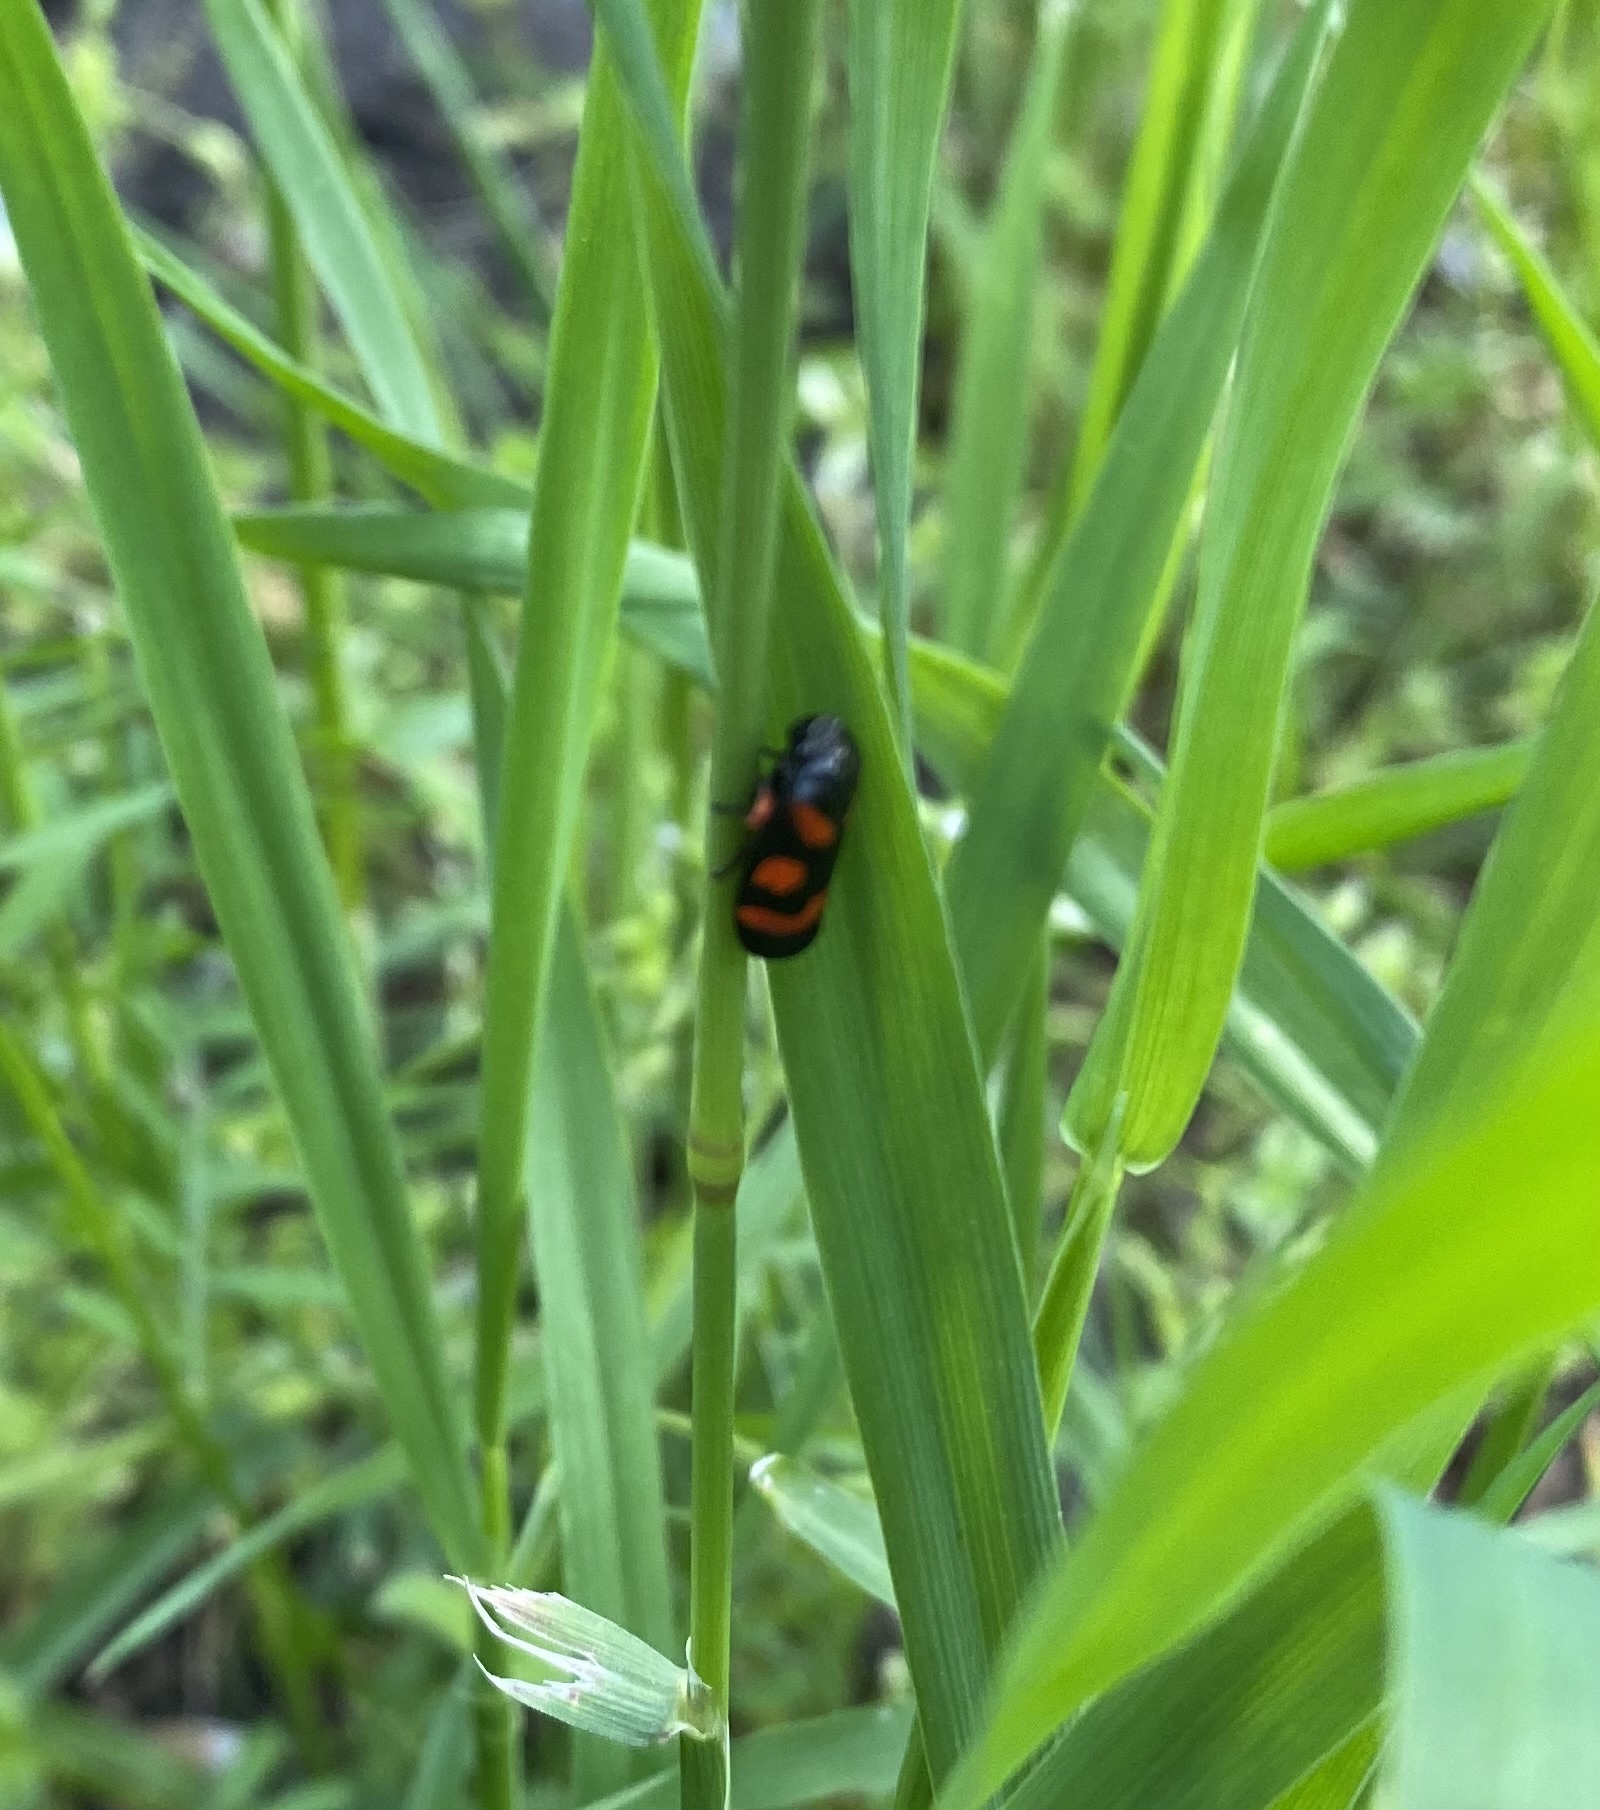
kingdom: Animalia
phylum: Arthropoda
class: Insecta
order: Hemiptera
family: Cercopidae
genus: Cercopis
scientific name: Cercopis intermedia
